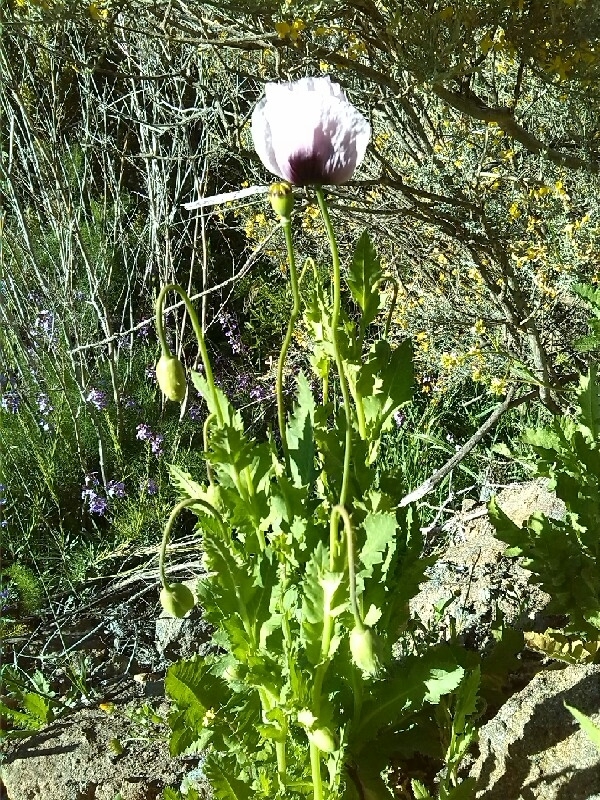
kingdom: Plantae
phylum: Tracheophyta
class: Magnoliopsida
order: Ranunculales
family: Papaveraceae
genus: Papaver
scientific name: Papaver somniferum
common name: Opium poppy
